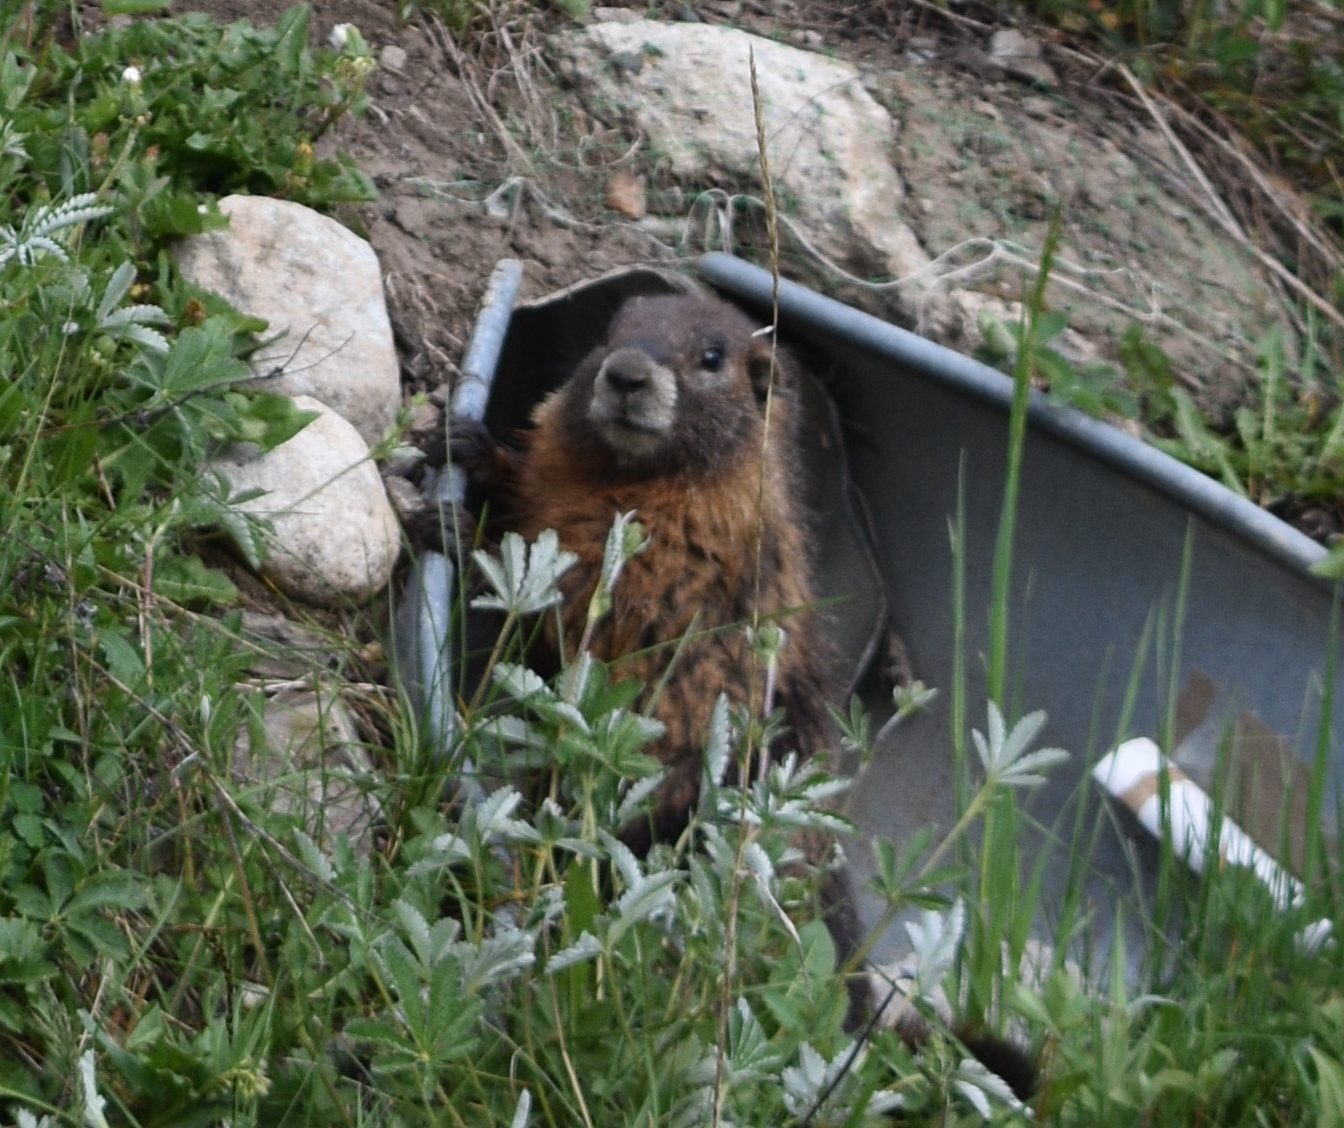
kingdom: Animalia
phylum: Chordata
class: Mammalia
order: Rodentia
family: Sciuridae
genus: Marmota
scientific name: Marmota flaviventris
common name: Yellow-bellied marmot
